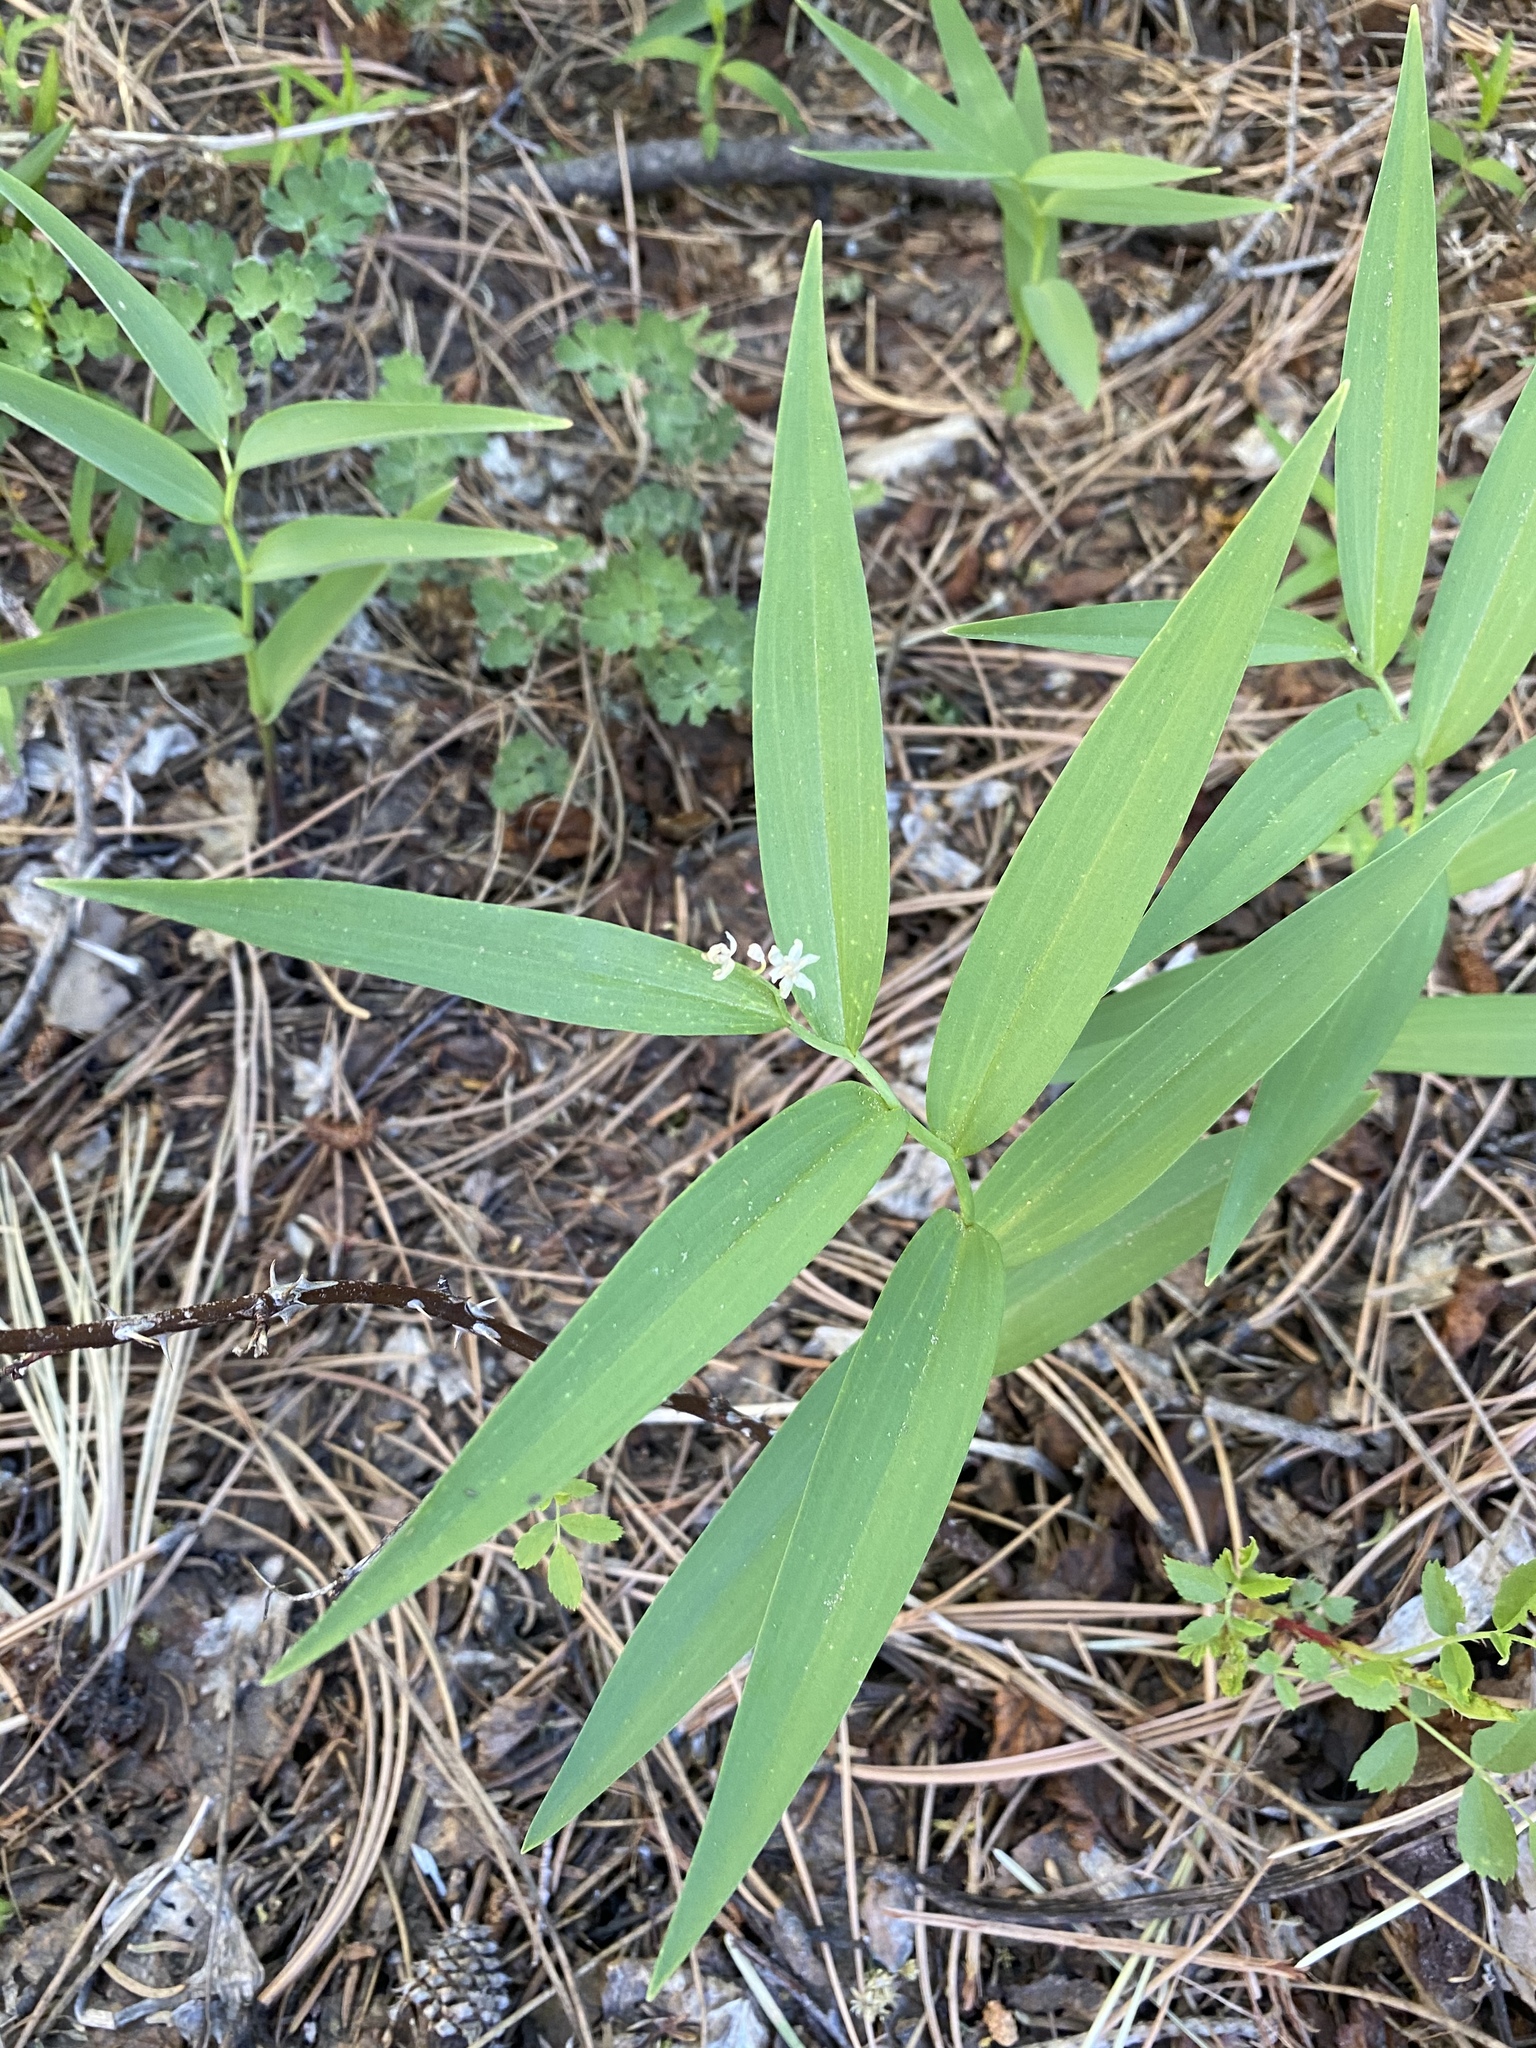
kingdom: Plantae
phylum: Tracheophyta
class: Liliopsida
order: Asparagales
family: Asparagaceae
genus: Maianthemum
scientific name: Maianthemum stellatum
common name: Little false solomon's seal
